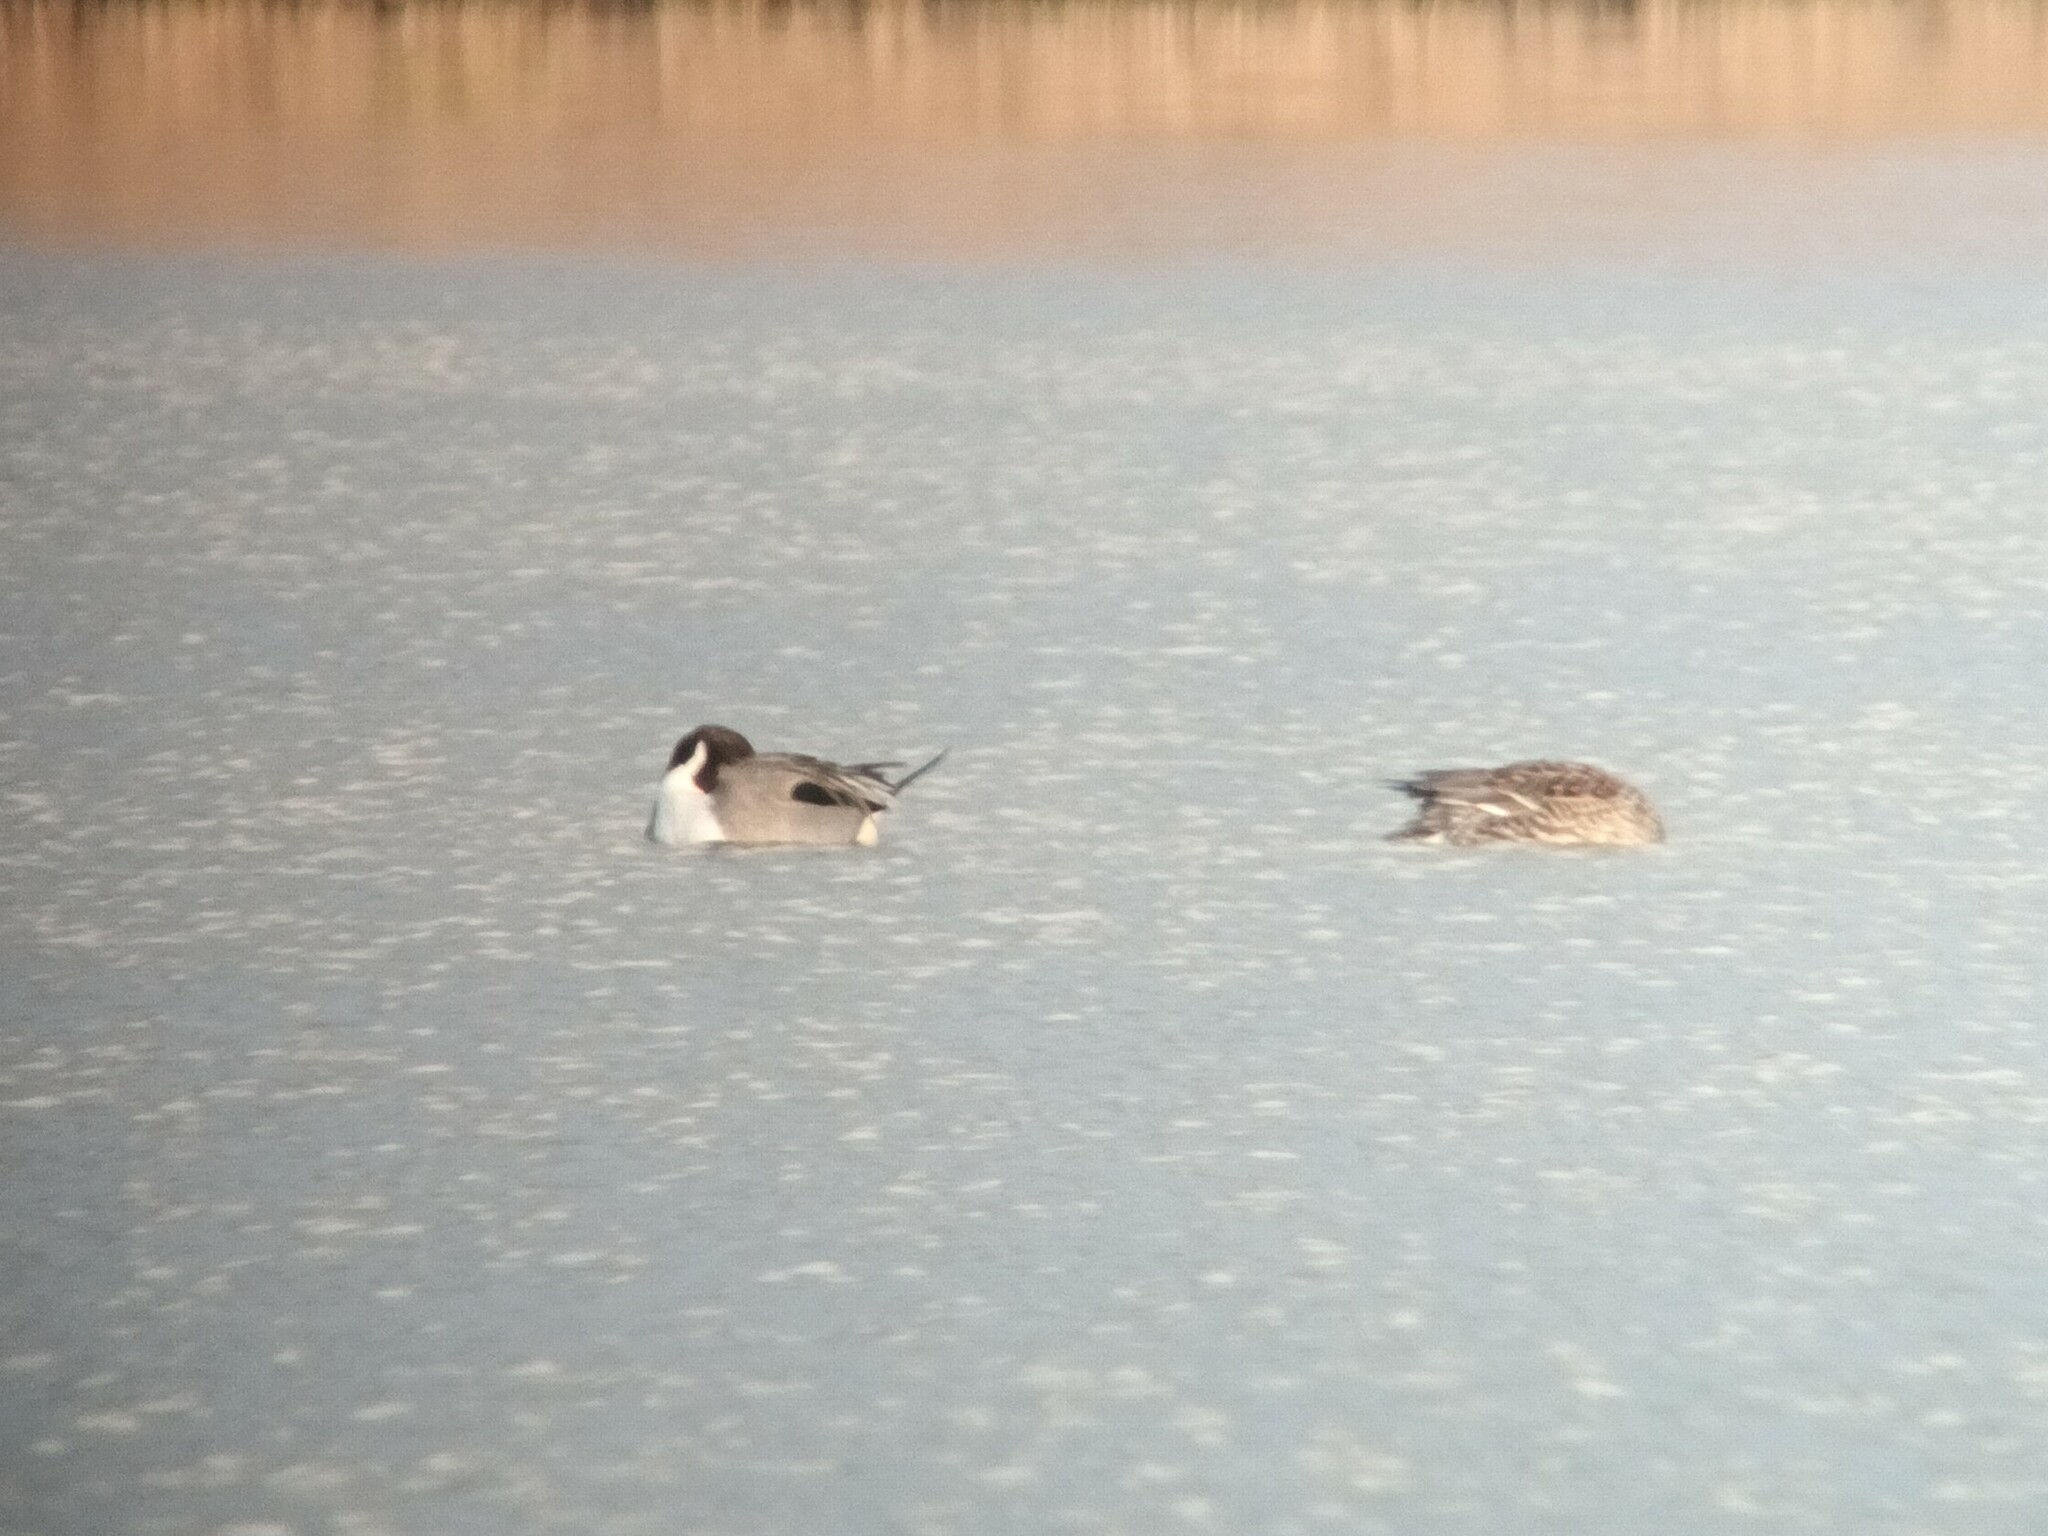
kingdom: Animalia
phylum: Chordata
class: Aves
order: Anseriformes
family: Anatidae
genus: Anas
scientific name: Anas acuta
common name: Northern pintail
